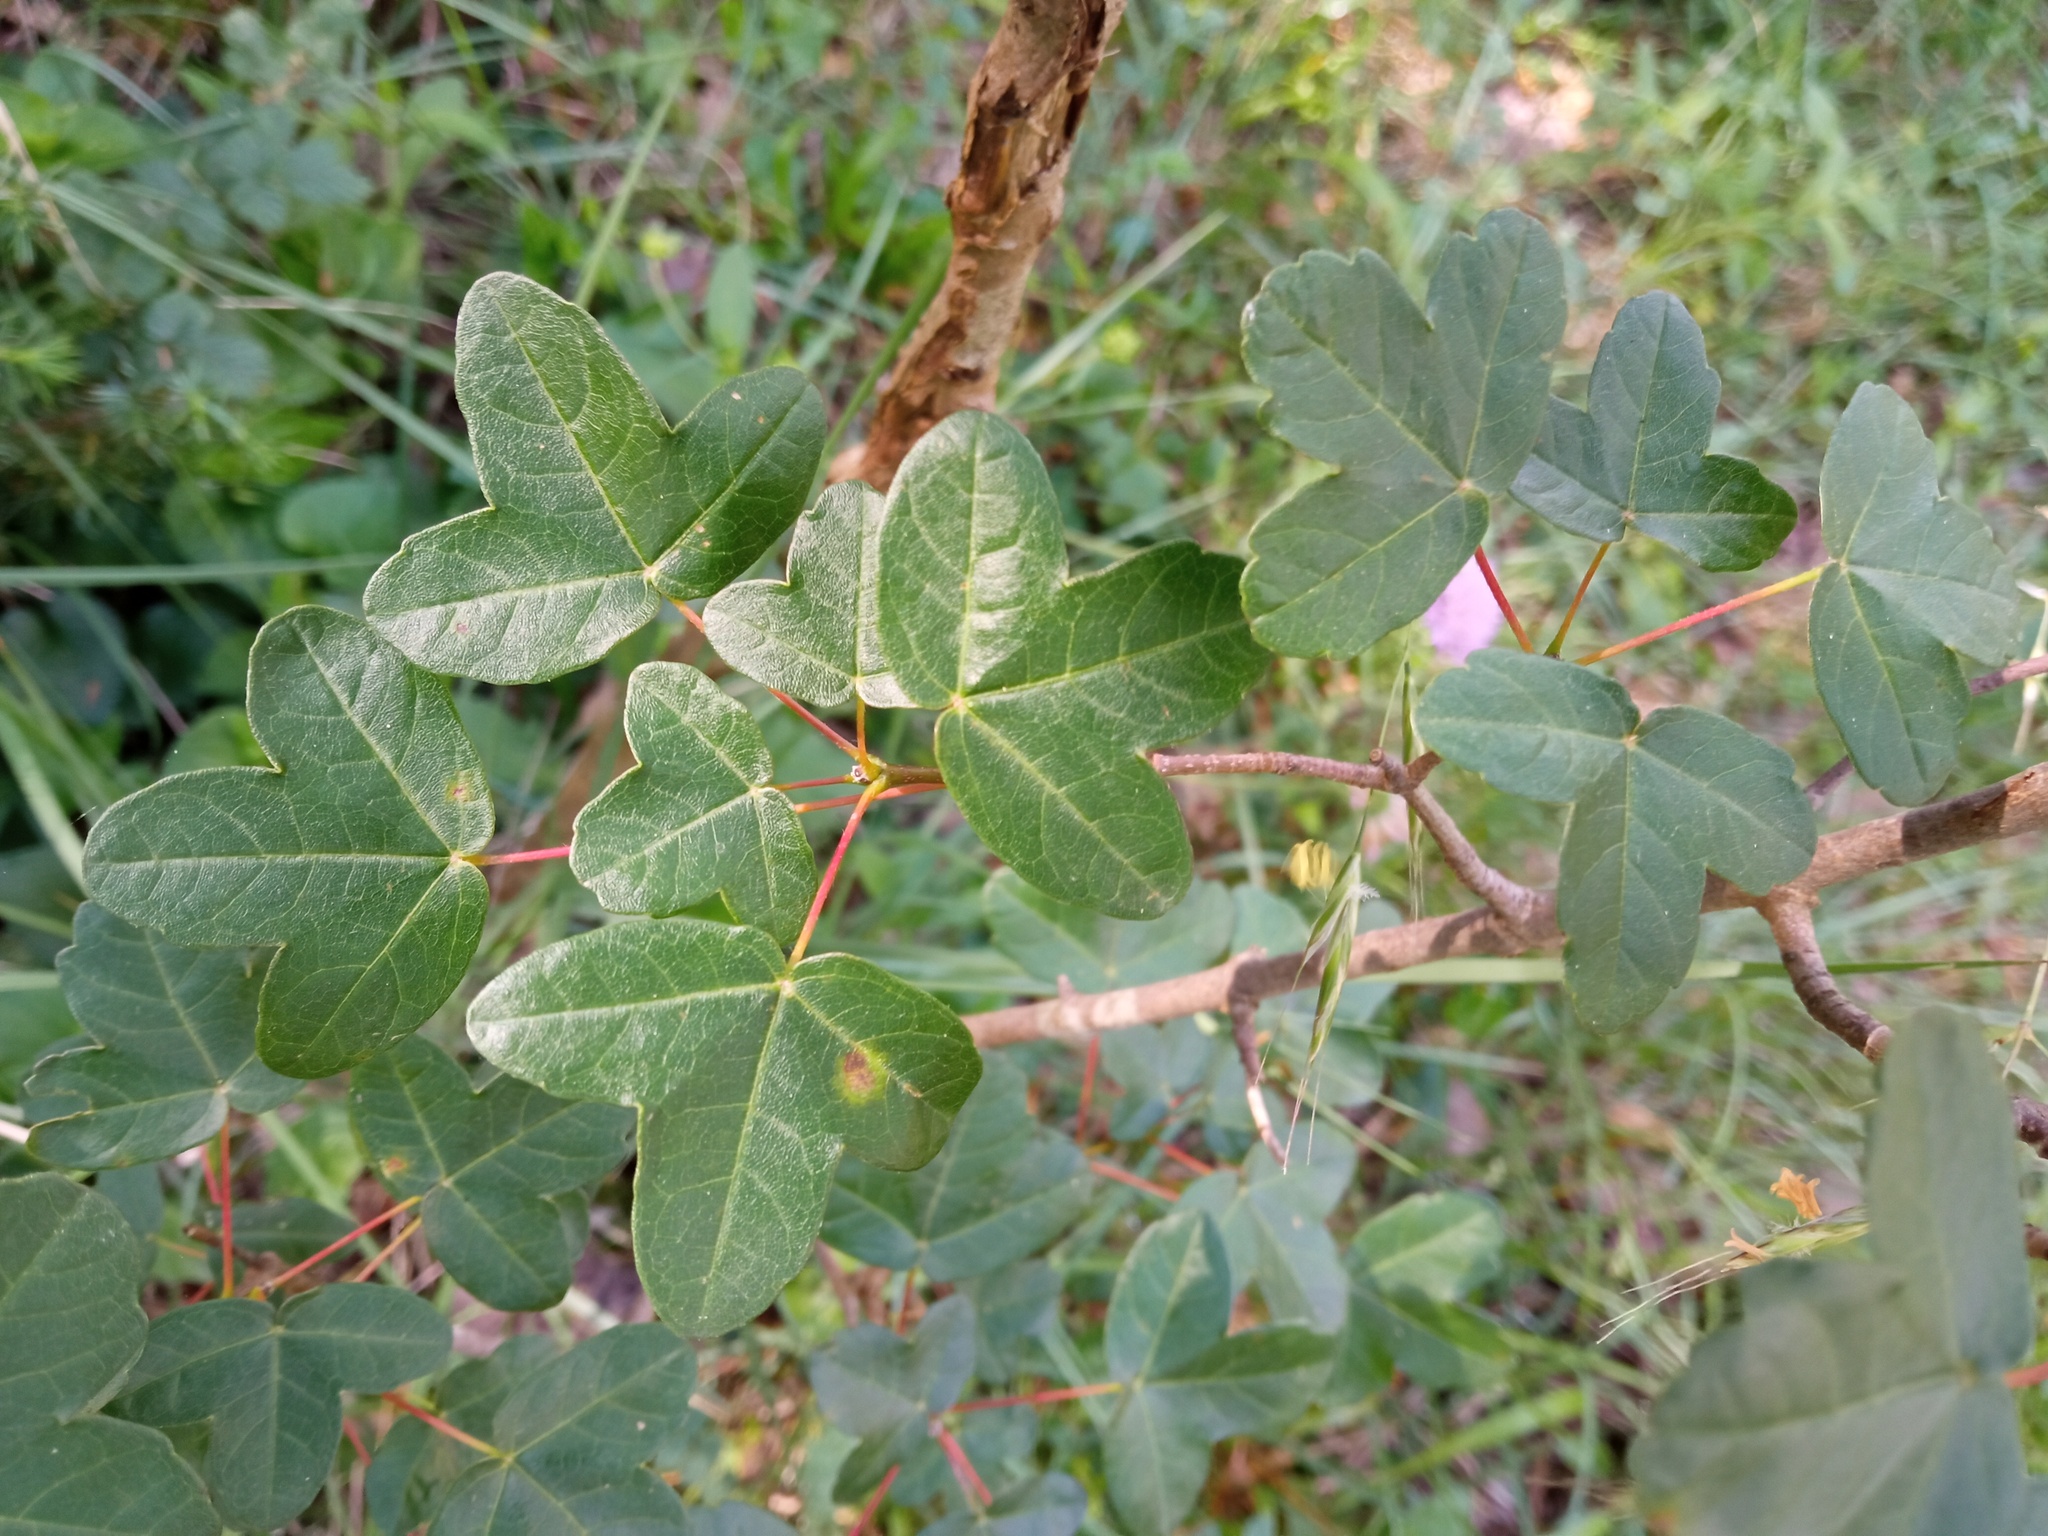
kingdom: Plantae
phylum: Tracheophyta
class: Magnoliopsida
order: Sapindales
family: Sapindaceae
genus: Acer
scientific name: Acer monspessulanum
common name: Montpellier maple
